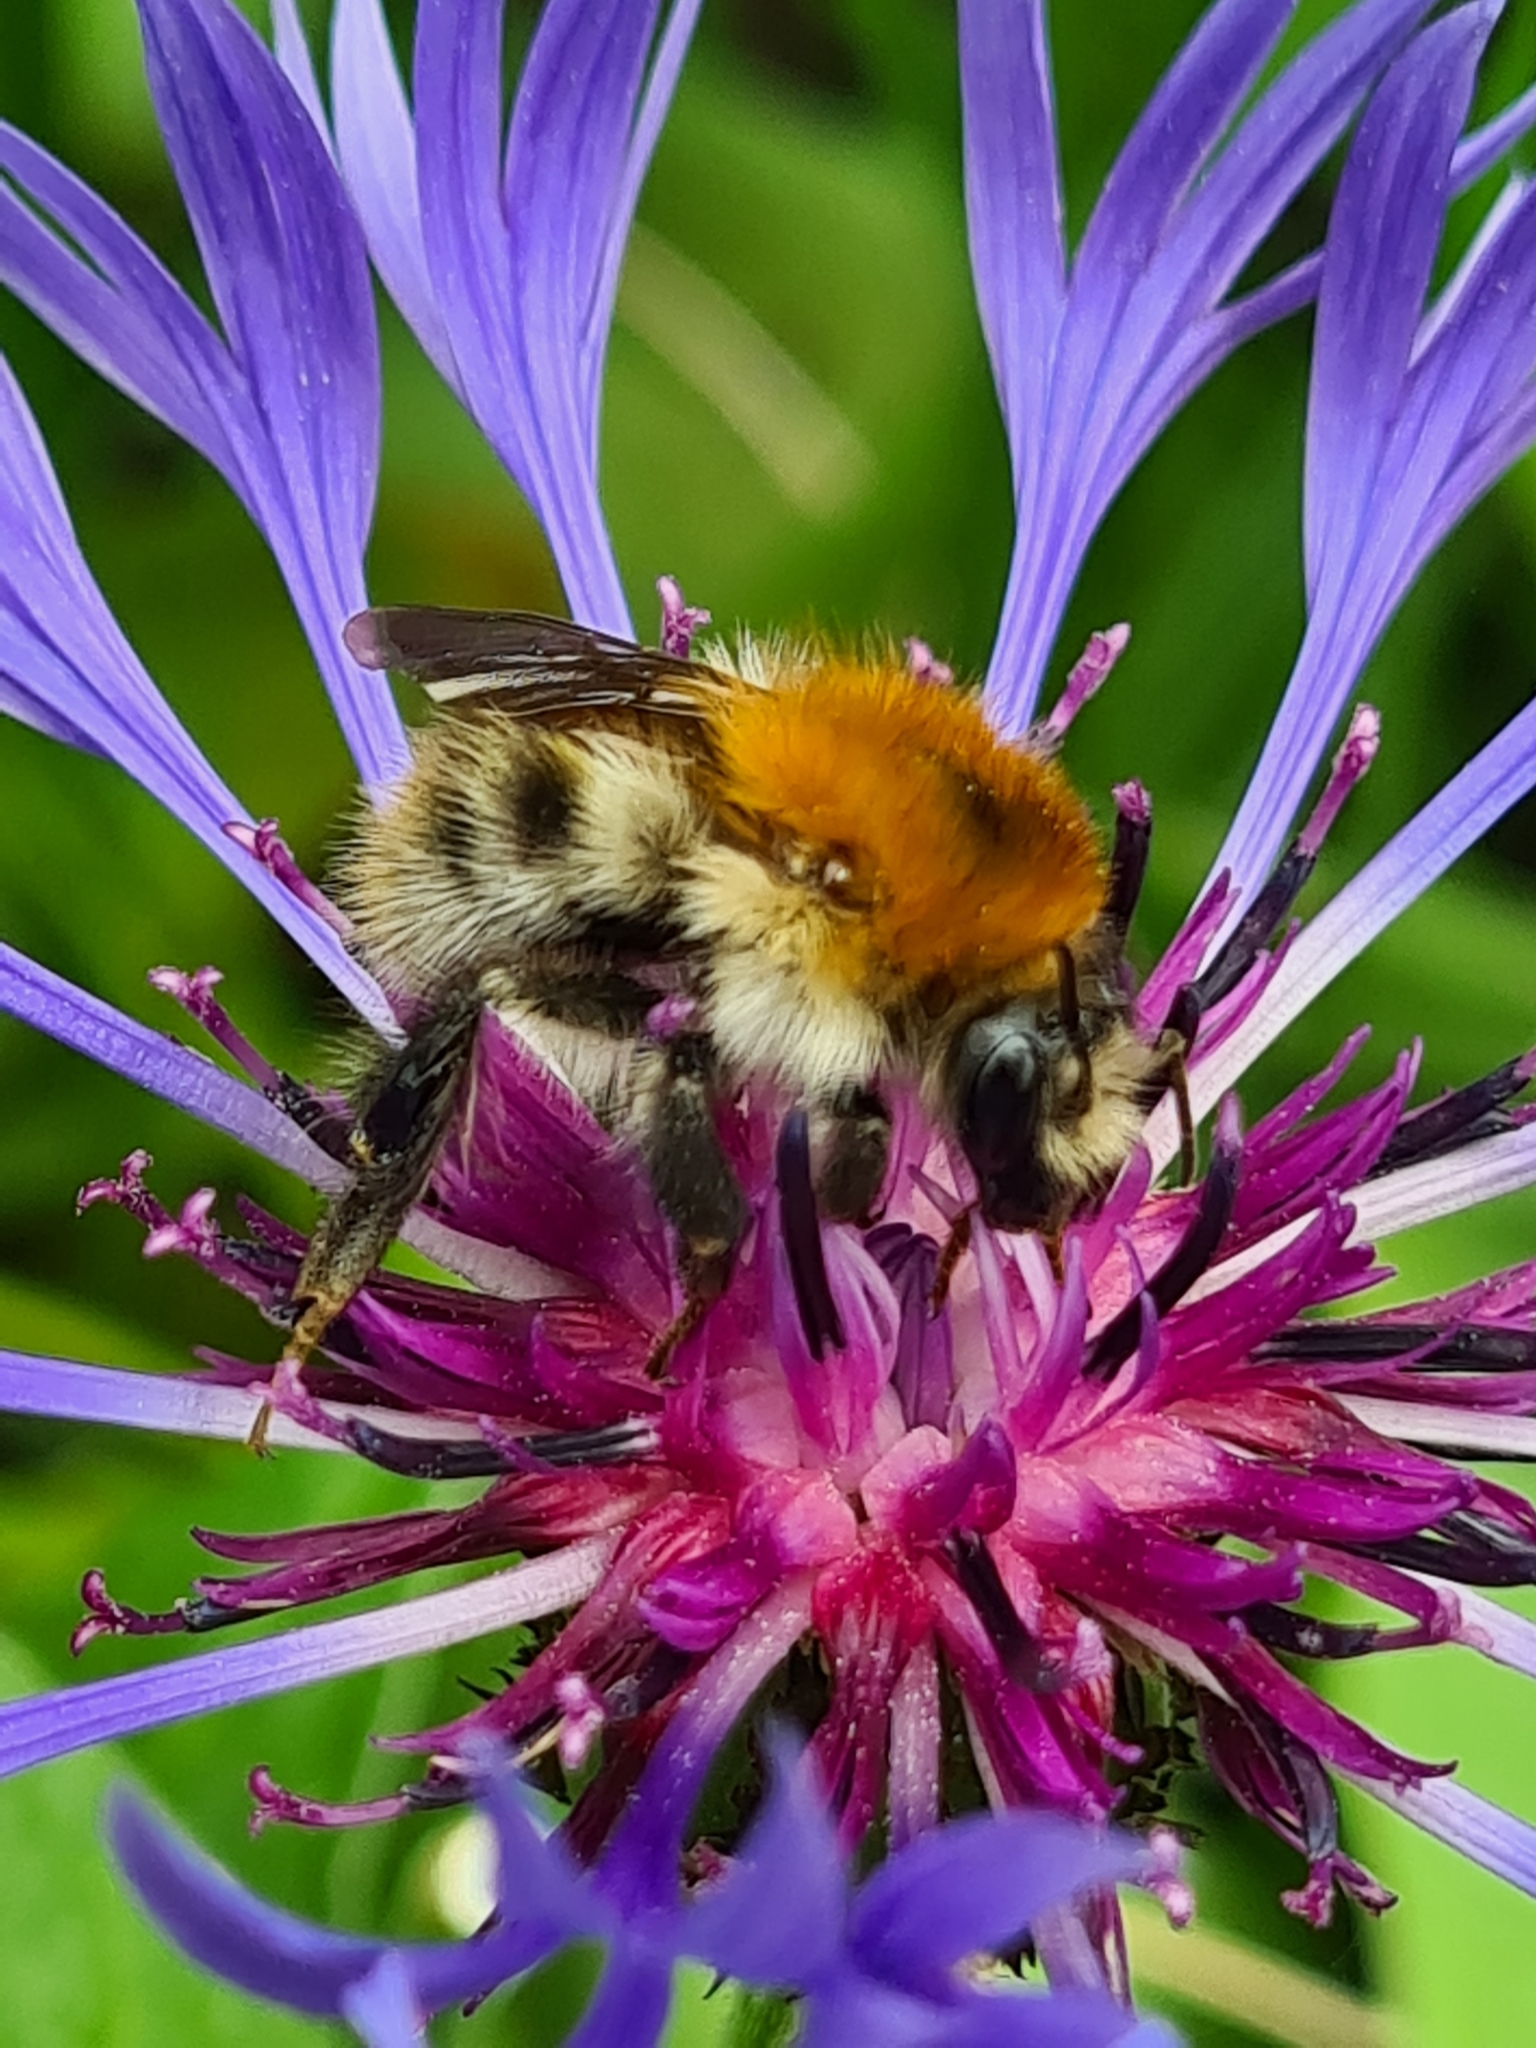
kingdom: Animalia
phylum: Arthropoda
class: Insecta
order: Hymenoptera
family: Apidae
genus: Bombus
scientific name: Bombus pascuorum
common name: Common carder bee
